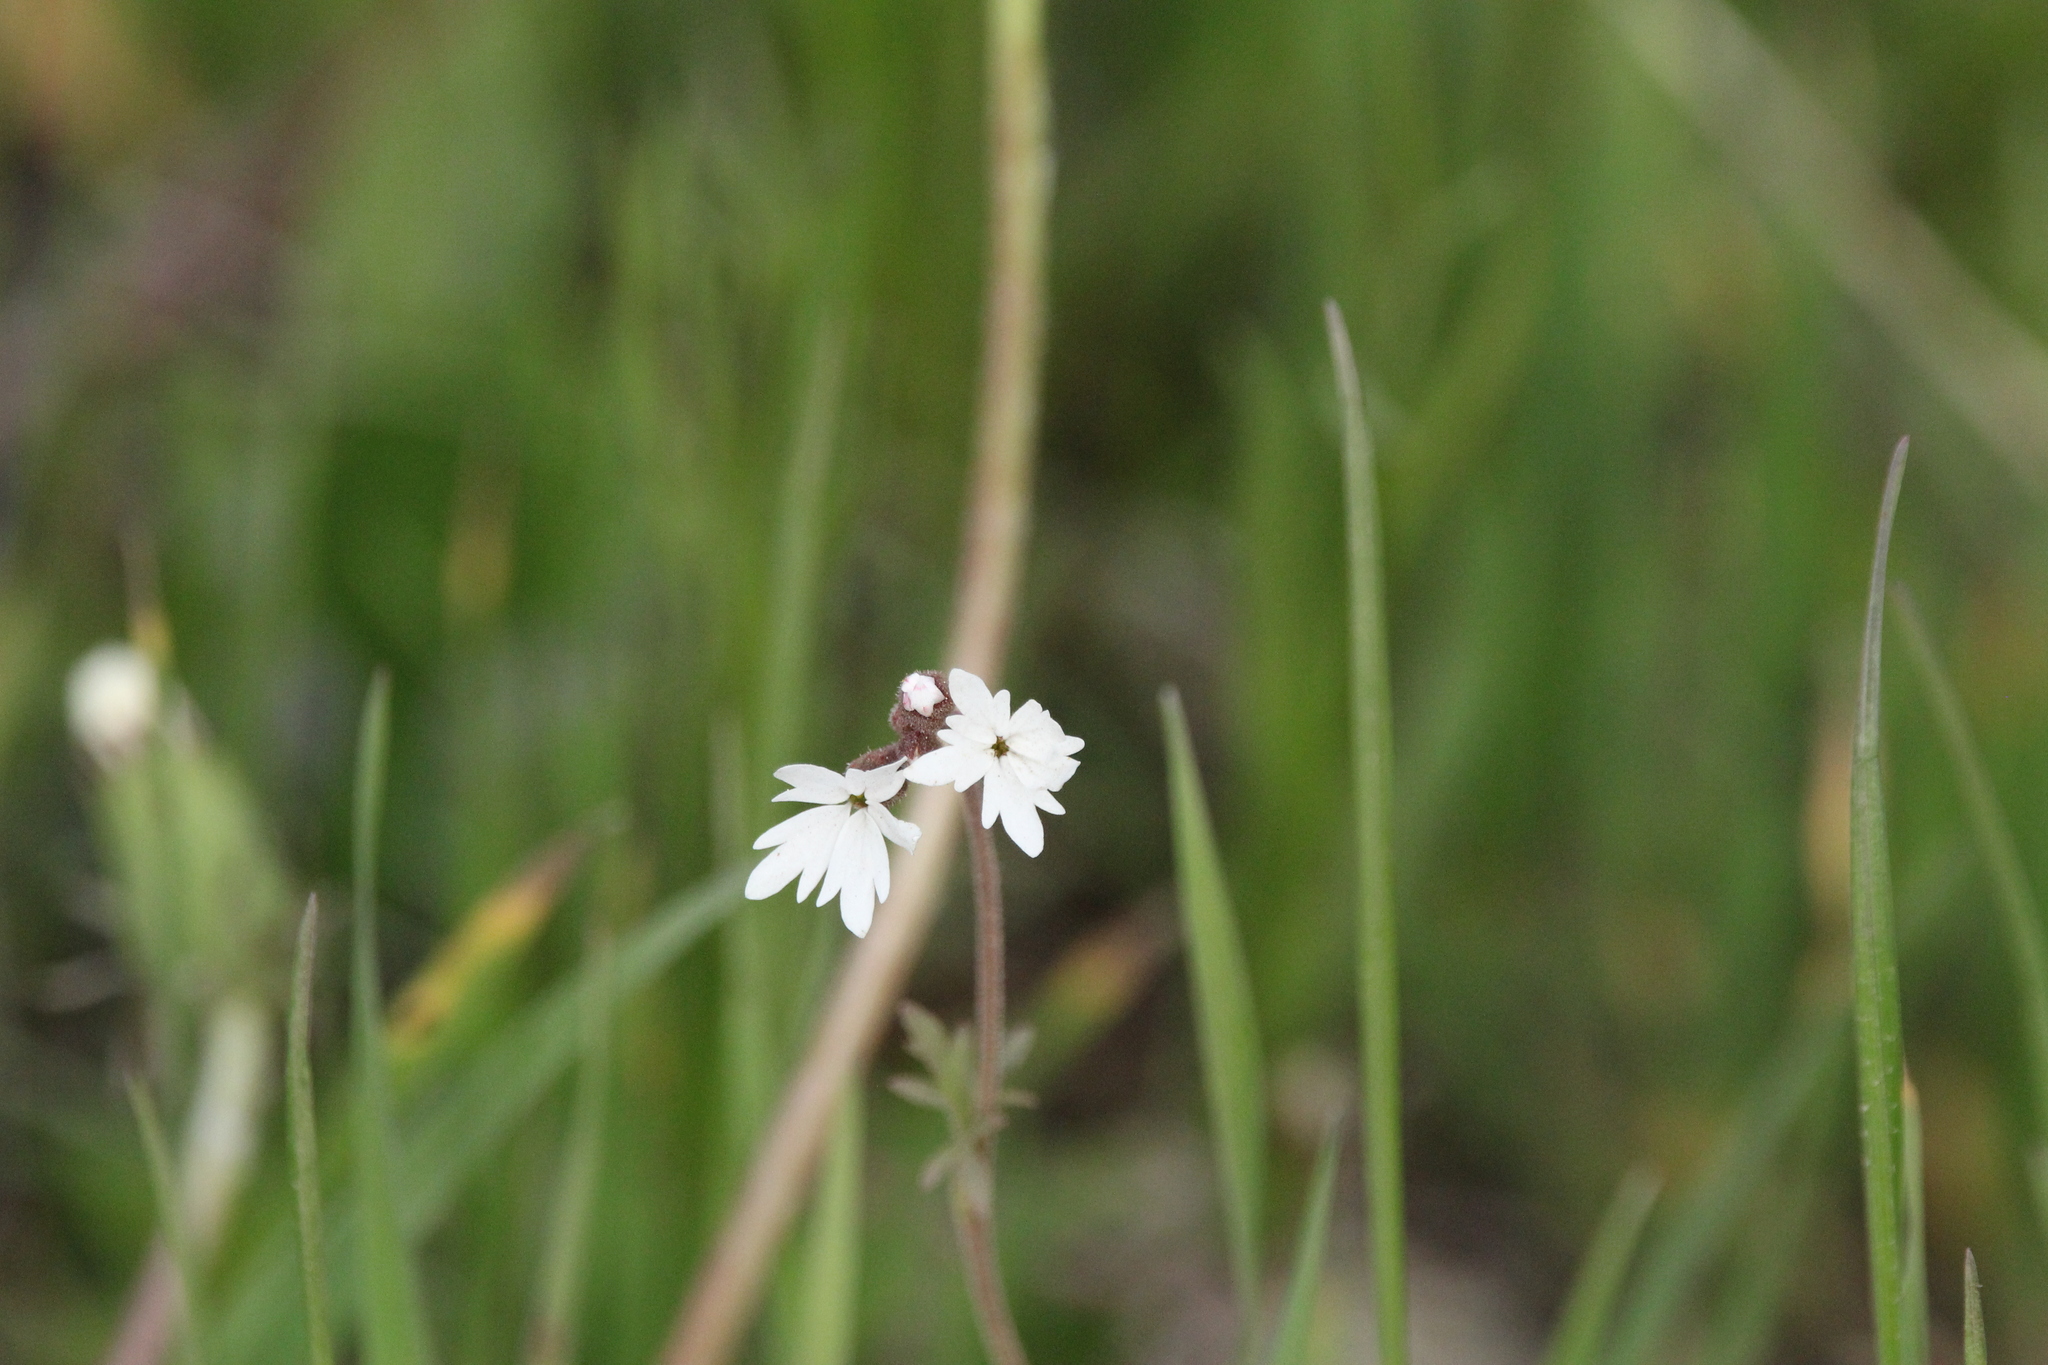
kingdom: Plantae
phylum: Tracheophyta
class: Magnoliopsida
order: Saxifragales
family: Saxifragaceae
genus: Lithophragma
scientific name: Lithophragma parviflorum
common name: Small-flowered fringe-cup
